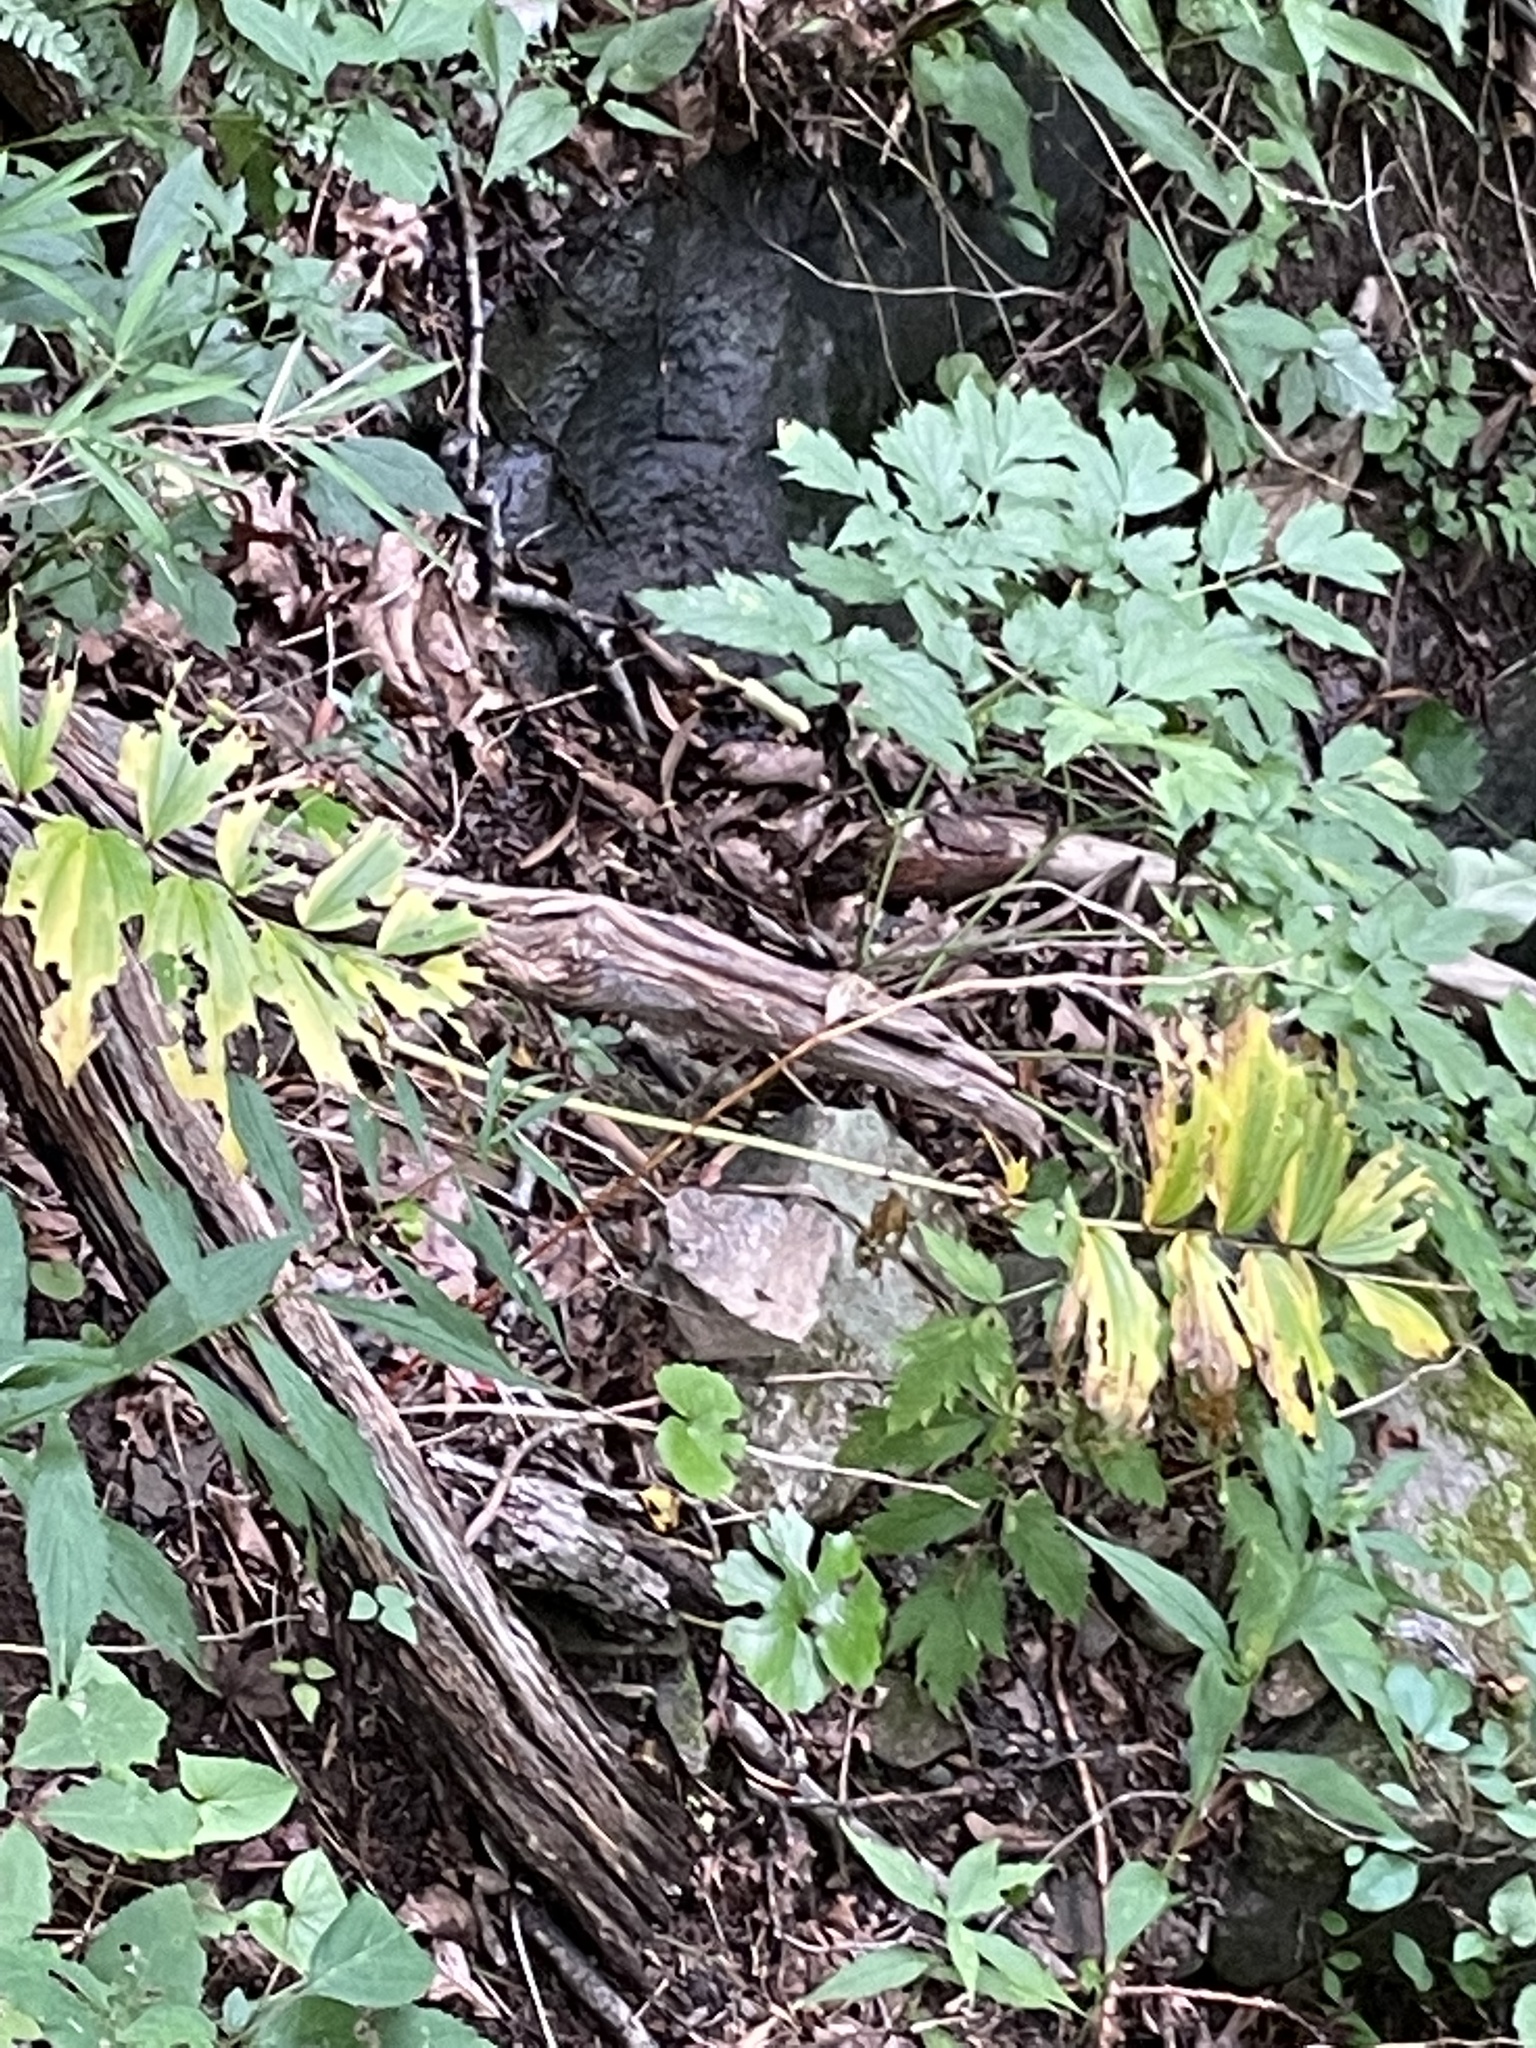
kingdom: Plantae
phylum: Tracheophyta
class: Liliopsida
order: Asparagales
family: Asparagaceae
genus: Maianthemum
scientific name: Maianthemum racemosum
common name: False spikenard
